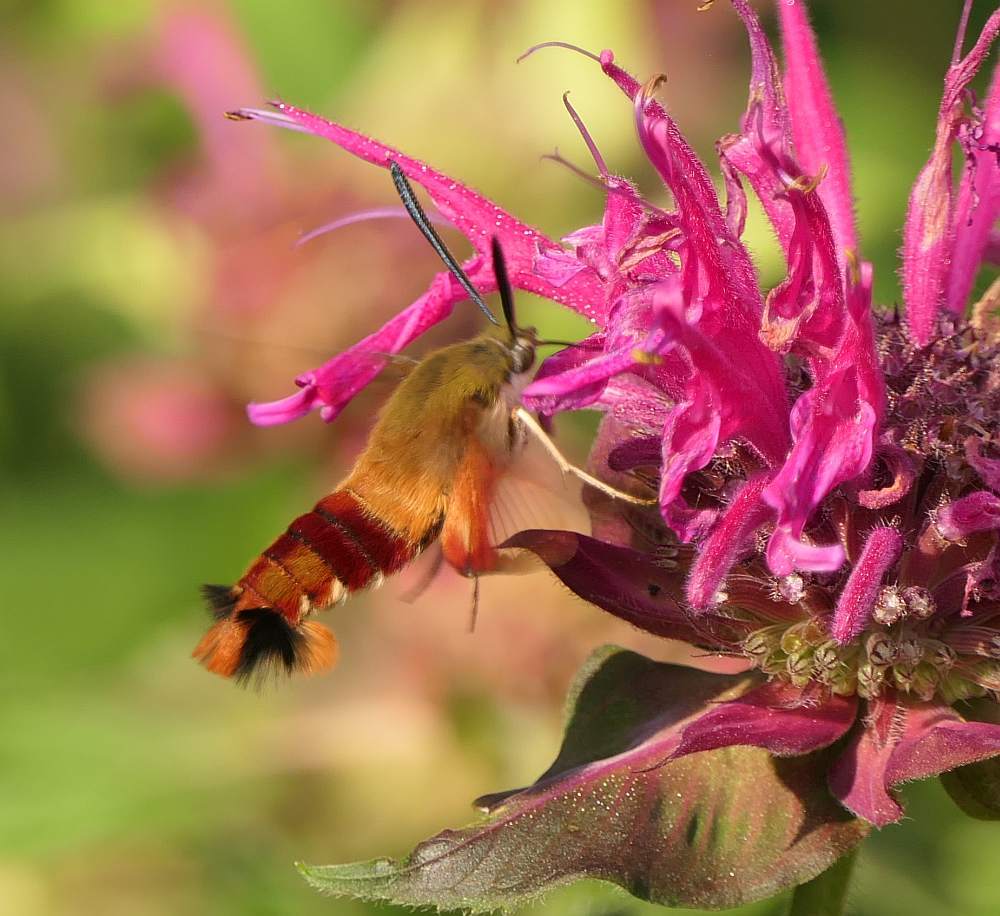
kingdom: Animalia
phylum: Arthropoda
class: Insecta
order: Lepidoptera
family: Sphingidae
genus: Hemaris
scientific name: Hemaris thysbe
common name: Common clear-wing
